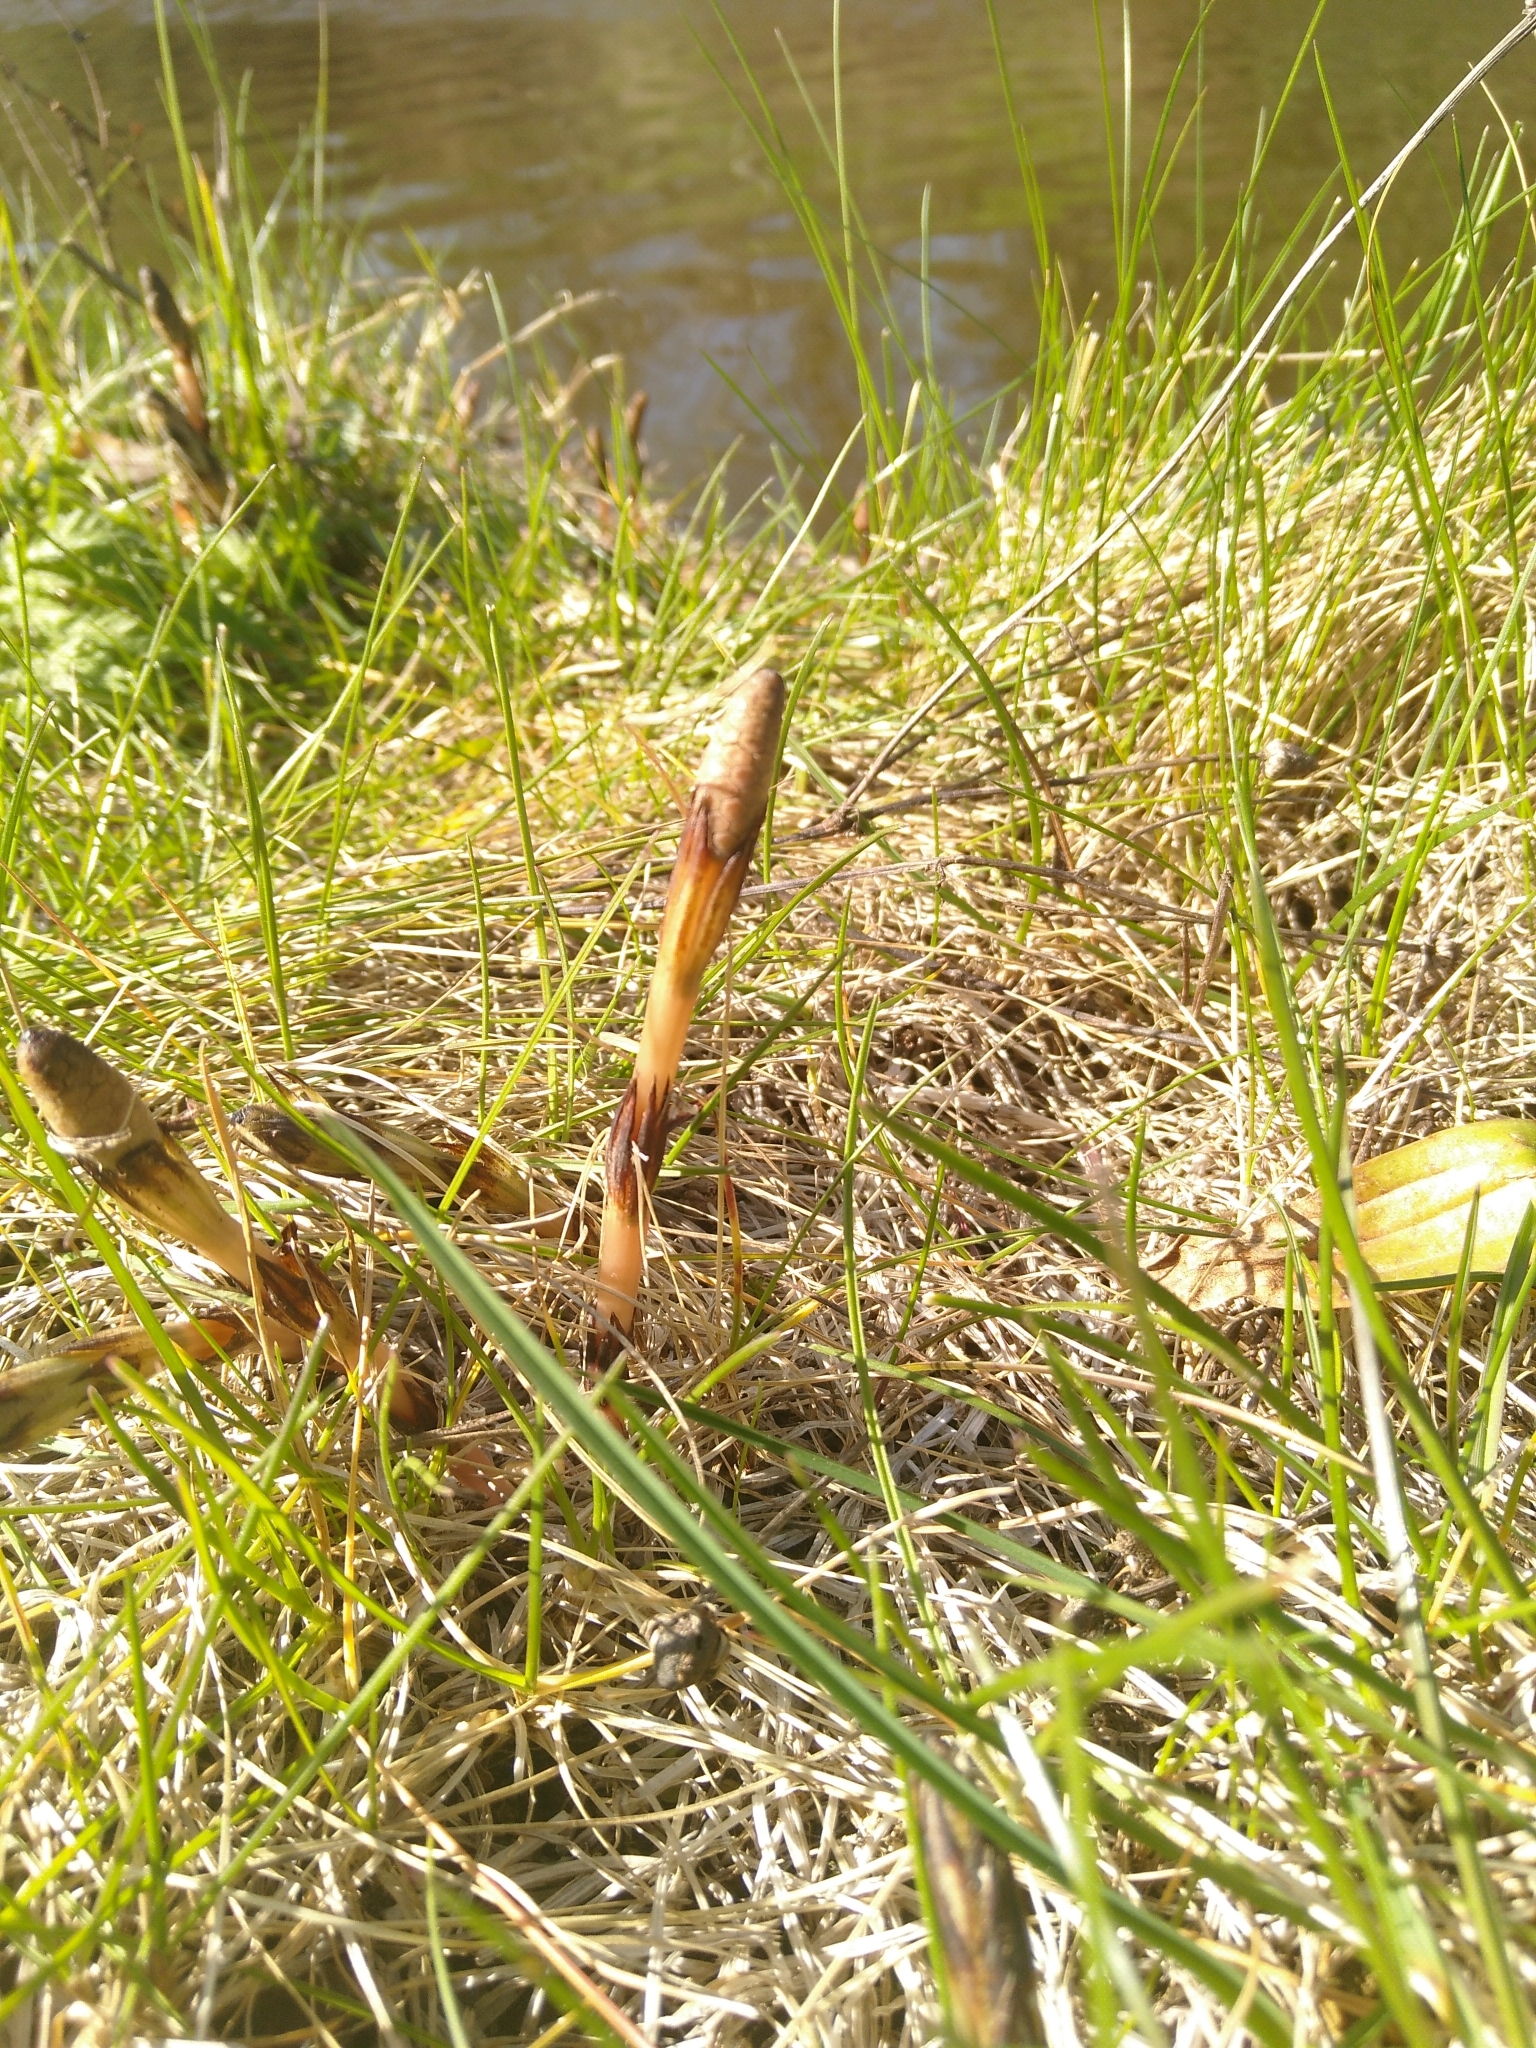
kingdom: Plantae
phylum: Tracheophyta
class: Polypodiopsida
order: Equisetales
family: Equisetaceae
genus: Equisetum
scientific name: Equisetum arvense
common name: Field horsetail
